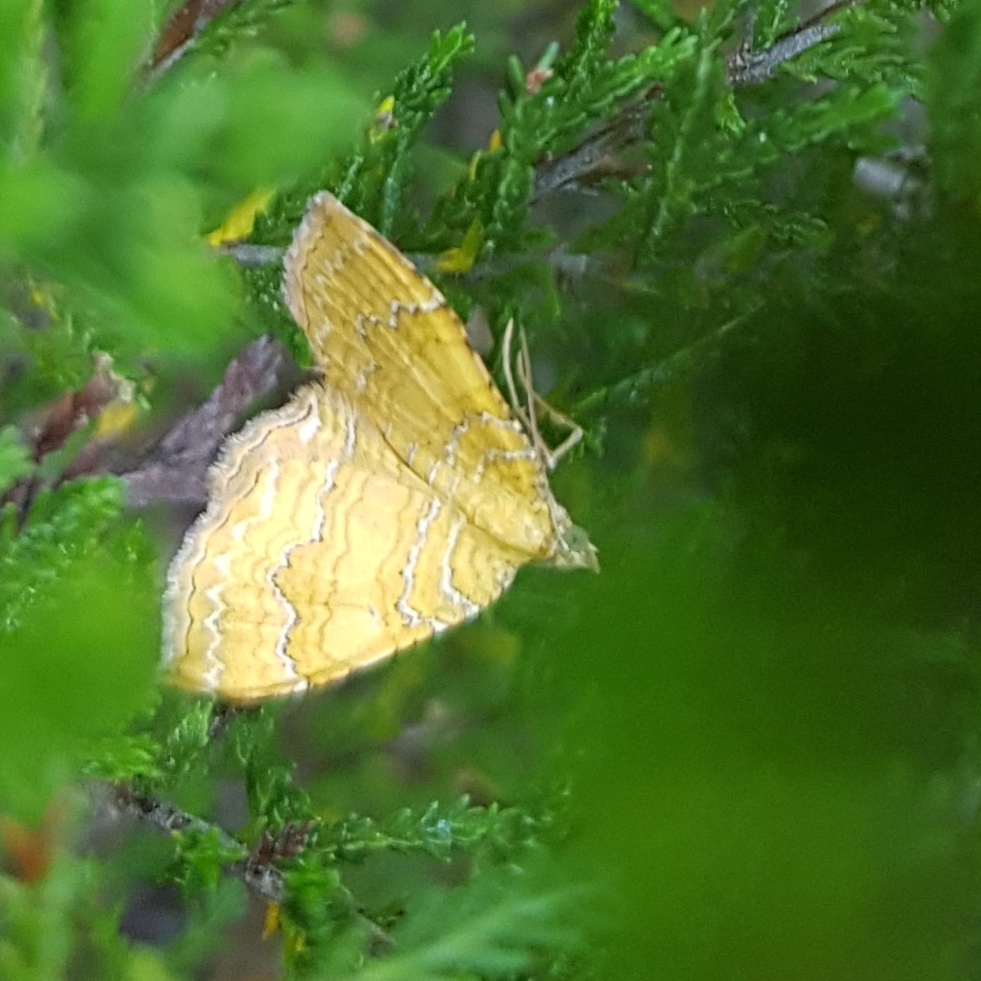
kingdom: Animalia
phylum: Arthropoda
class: Insecta
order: Lepidoptera
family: Geometridae
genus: Camptogramma
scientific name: Camptogramma bilineata
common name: Yellow shell
